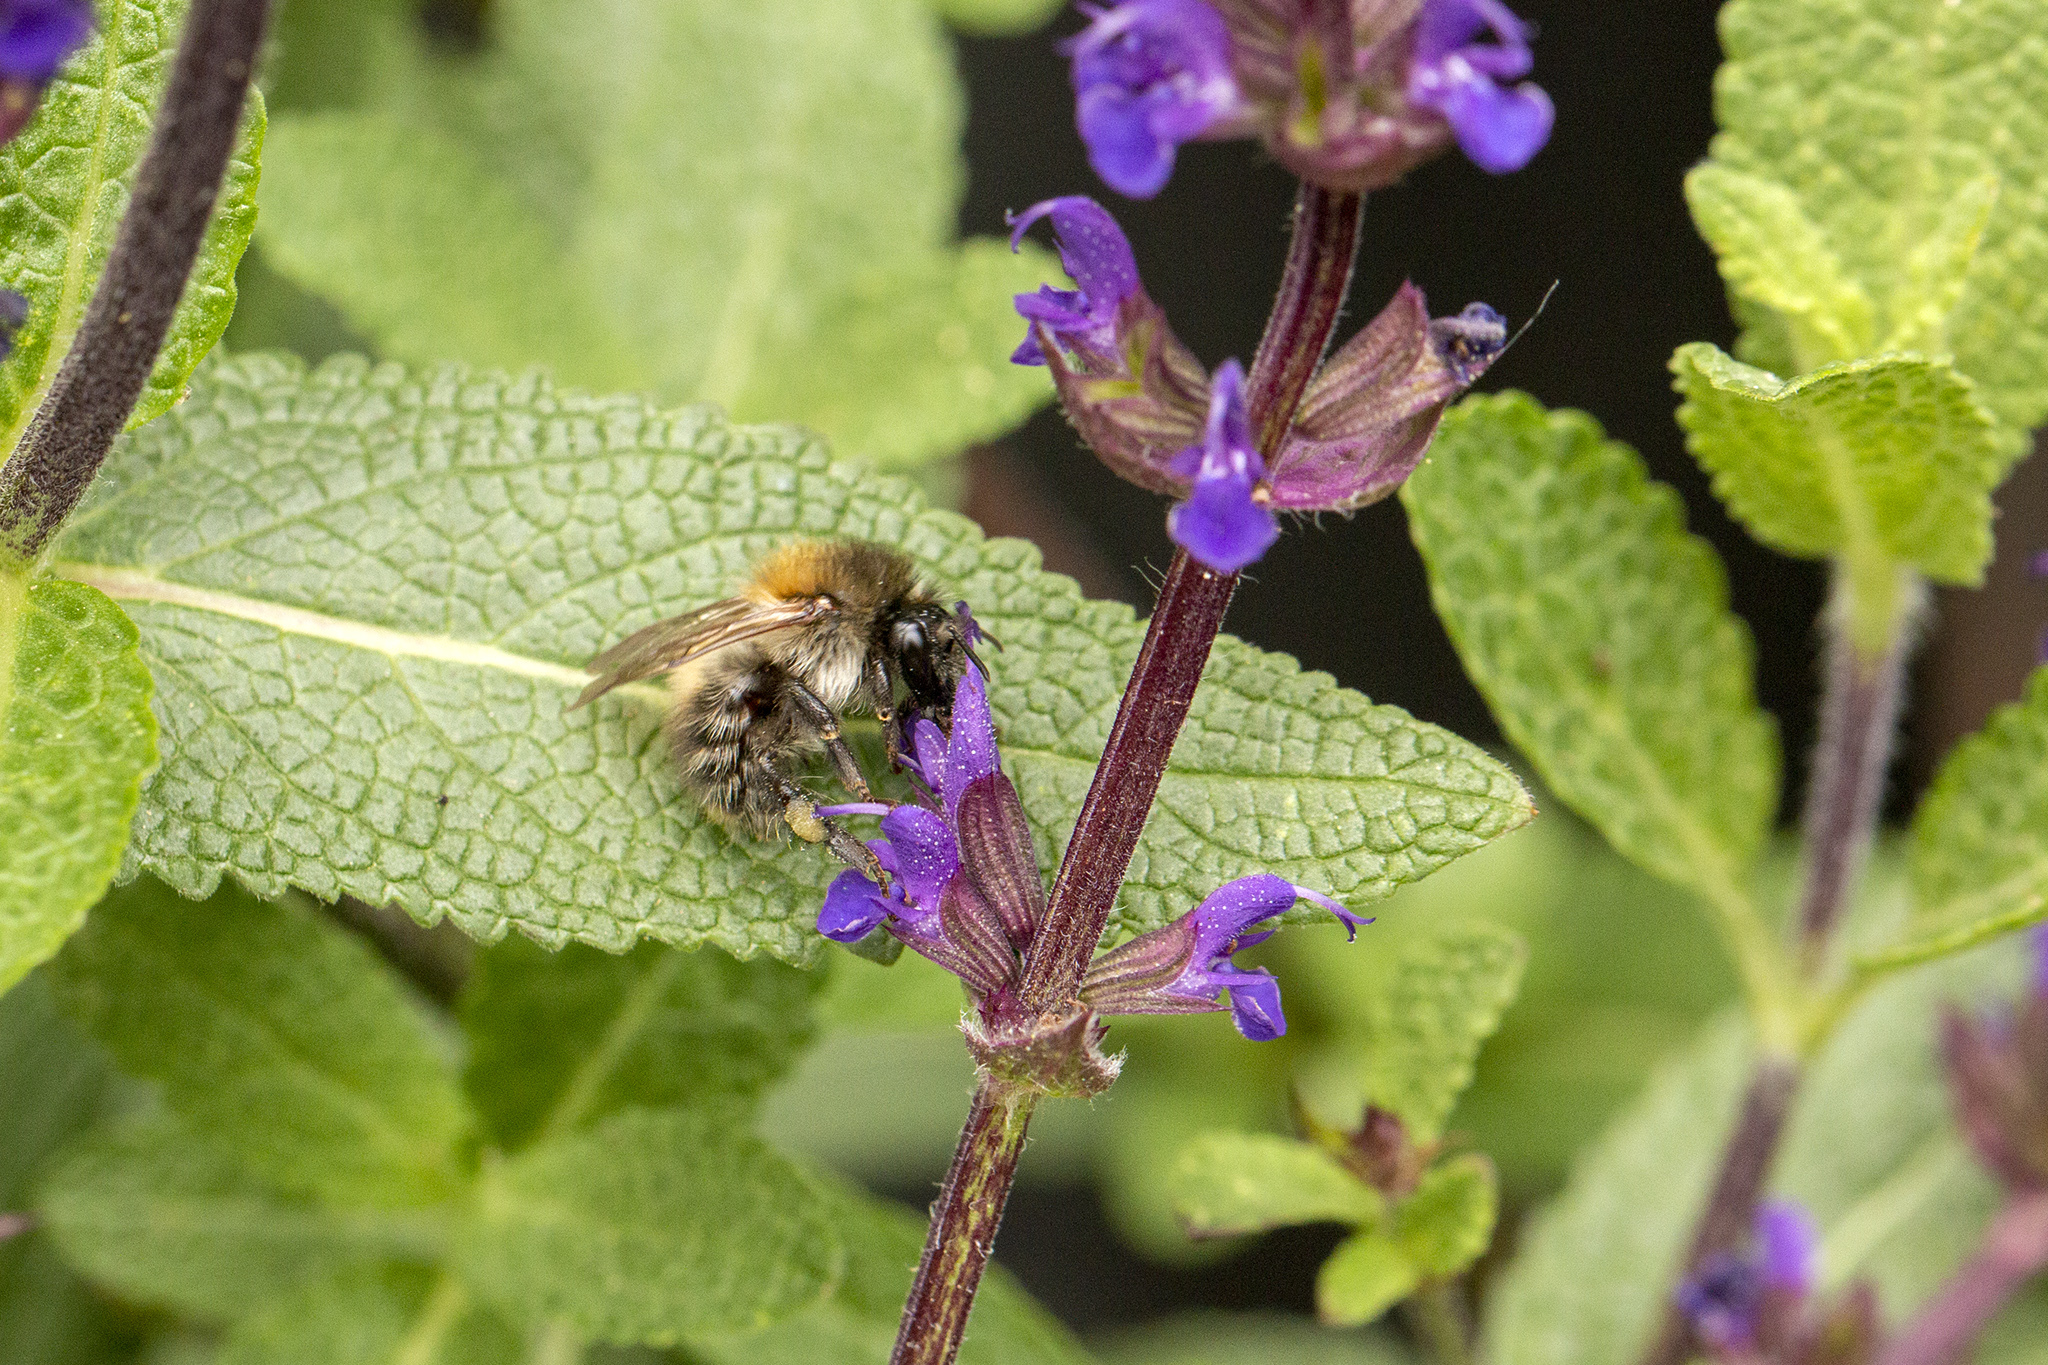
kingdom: Animalia
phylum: Arthropoda
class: Insecta
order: Hymenoptera
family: Apidae
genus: Bombus
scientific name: Bombus pascuorum
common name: Common carder bee
